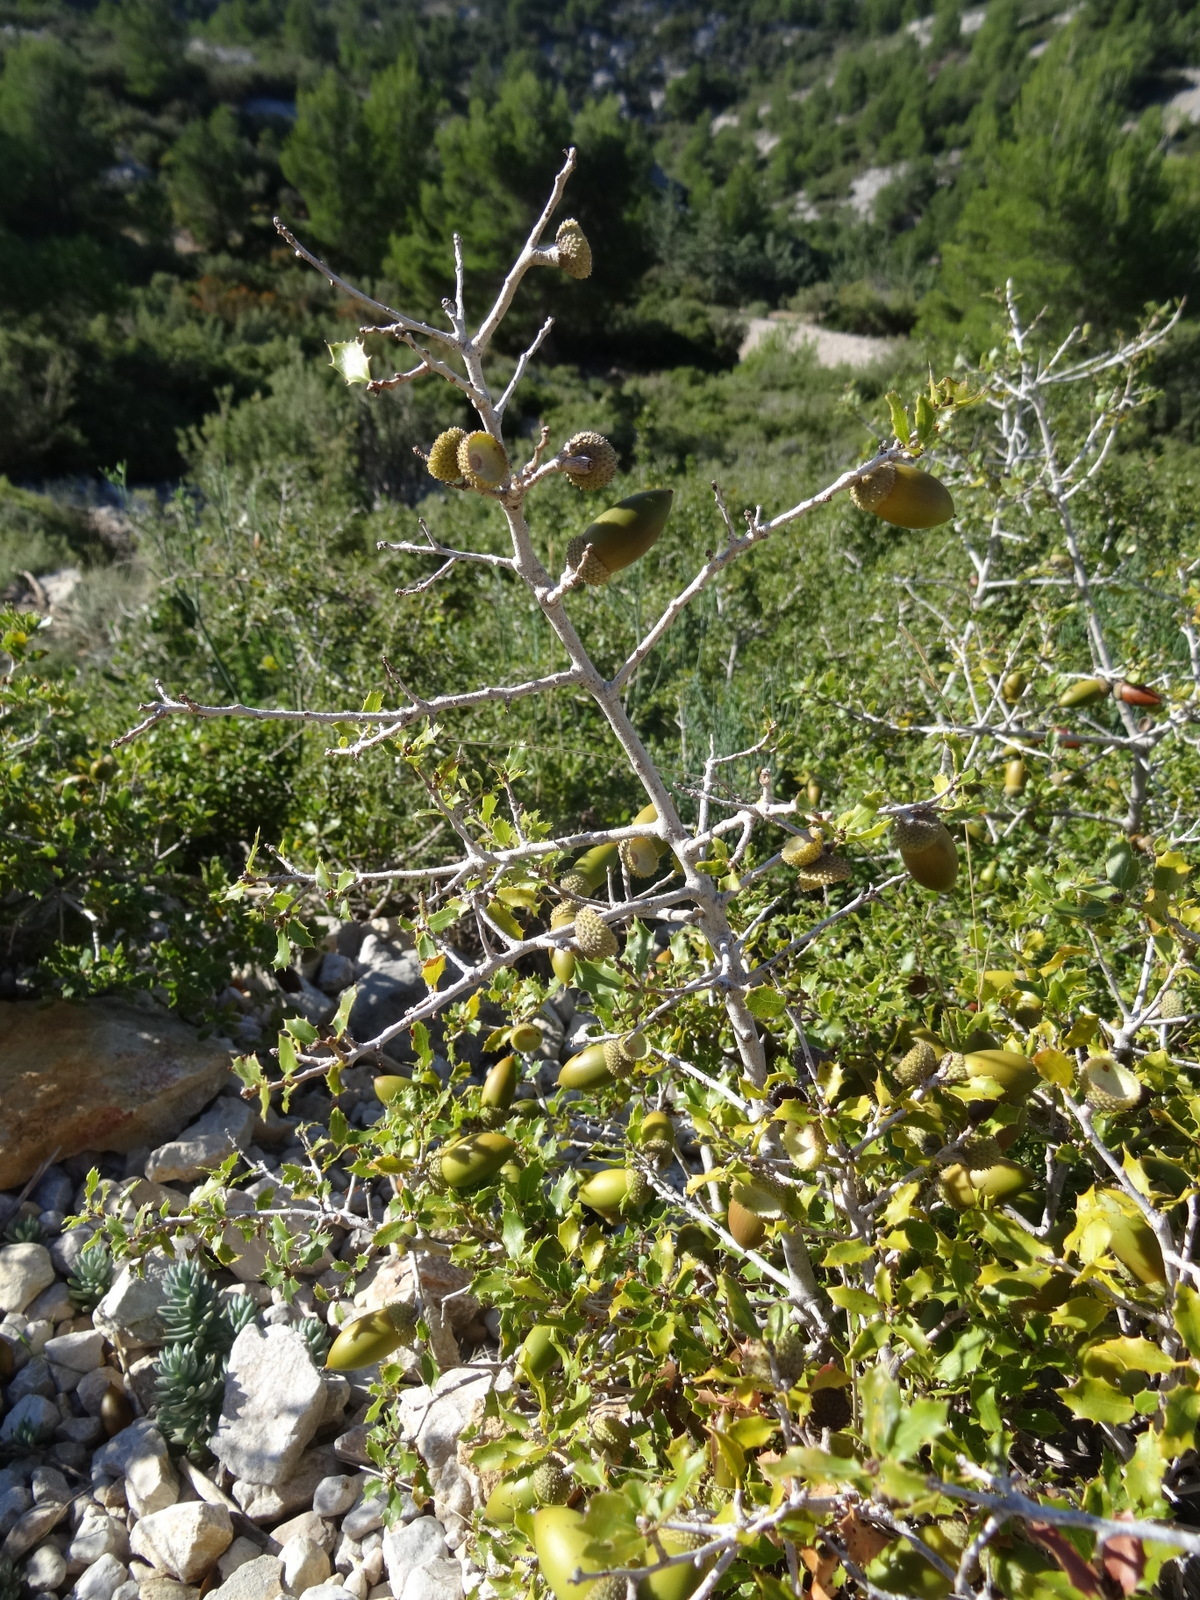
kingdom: Plantae
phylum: Tracheophyta
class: Magnoliopsida
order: Fagales
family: Fagaceae
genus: Quercus
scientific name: Quercus coccifera
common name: Kermes oak
